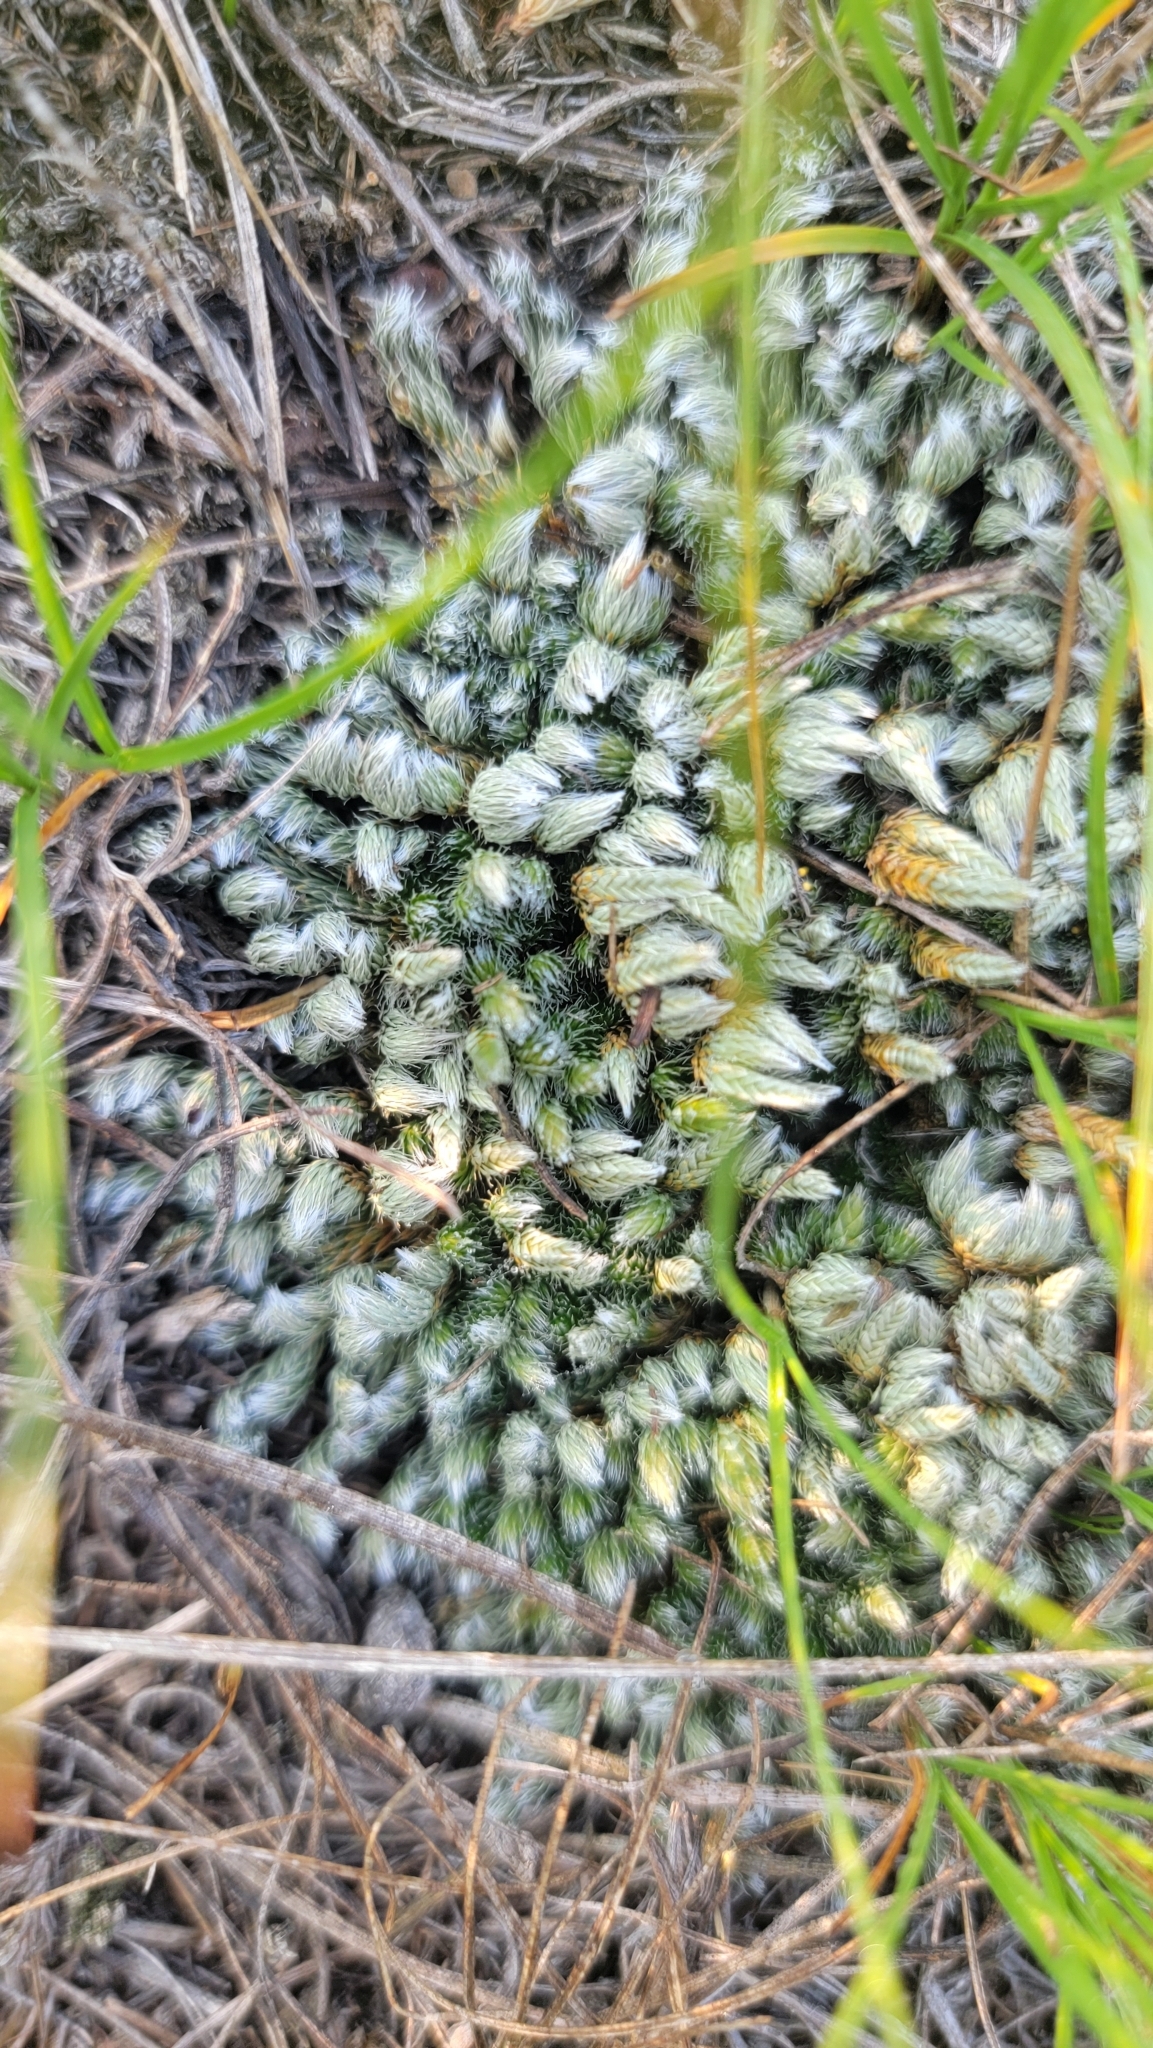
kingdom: Plantae
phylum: Tracheophyta
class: Lycopodiopsida
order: Selaginellales
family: Selaginellaceae
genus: Selaginella
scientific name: Selaginella densa
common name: Mountain spike-moss
